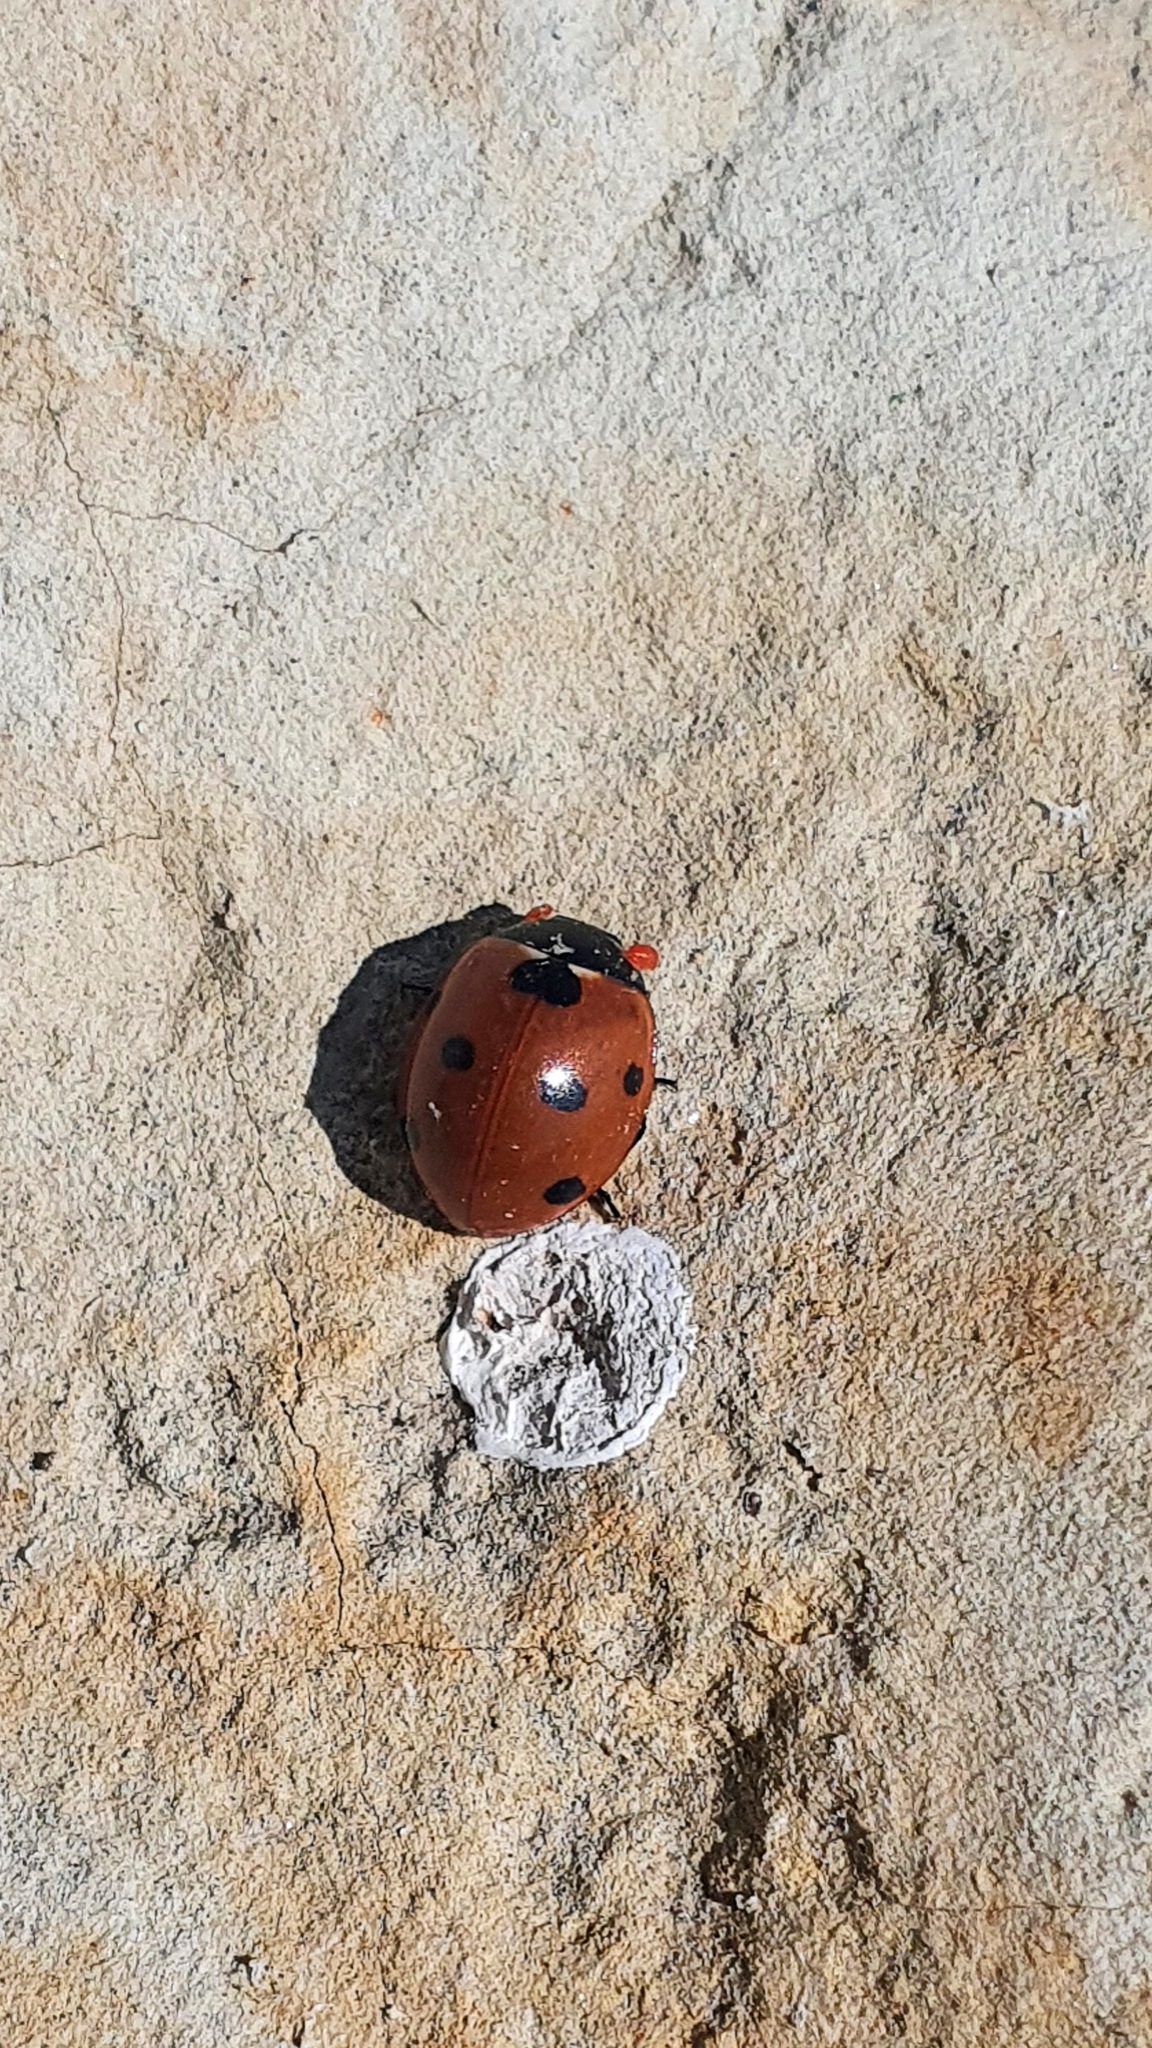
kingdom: Animalia
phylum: Arthropoda
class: Insecta
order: Coleoptera
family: Coccinellidae
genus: Coccinella
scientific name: Coccinella septempunctata
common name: Sevenspotted lady beetle
